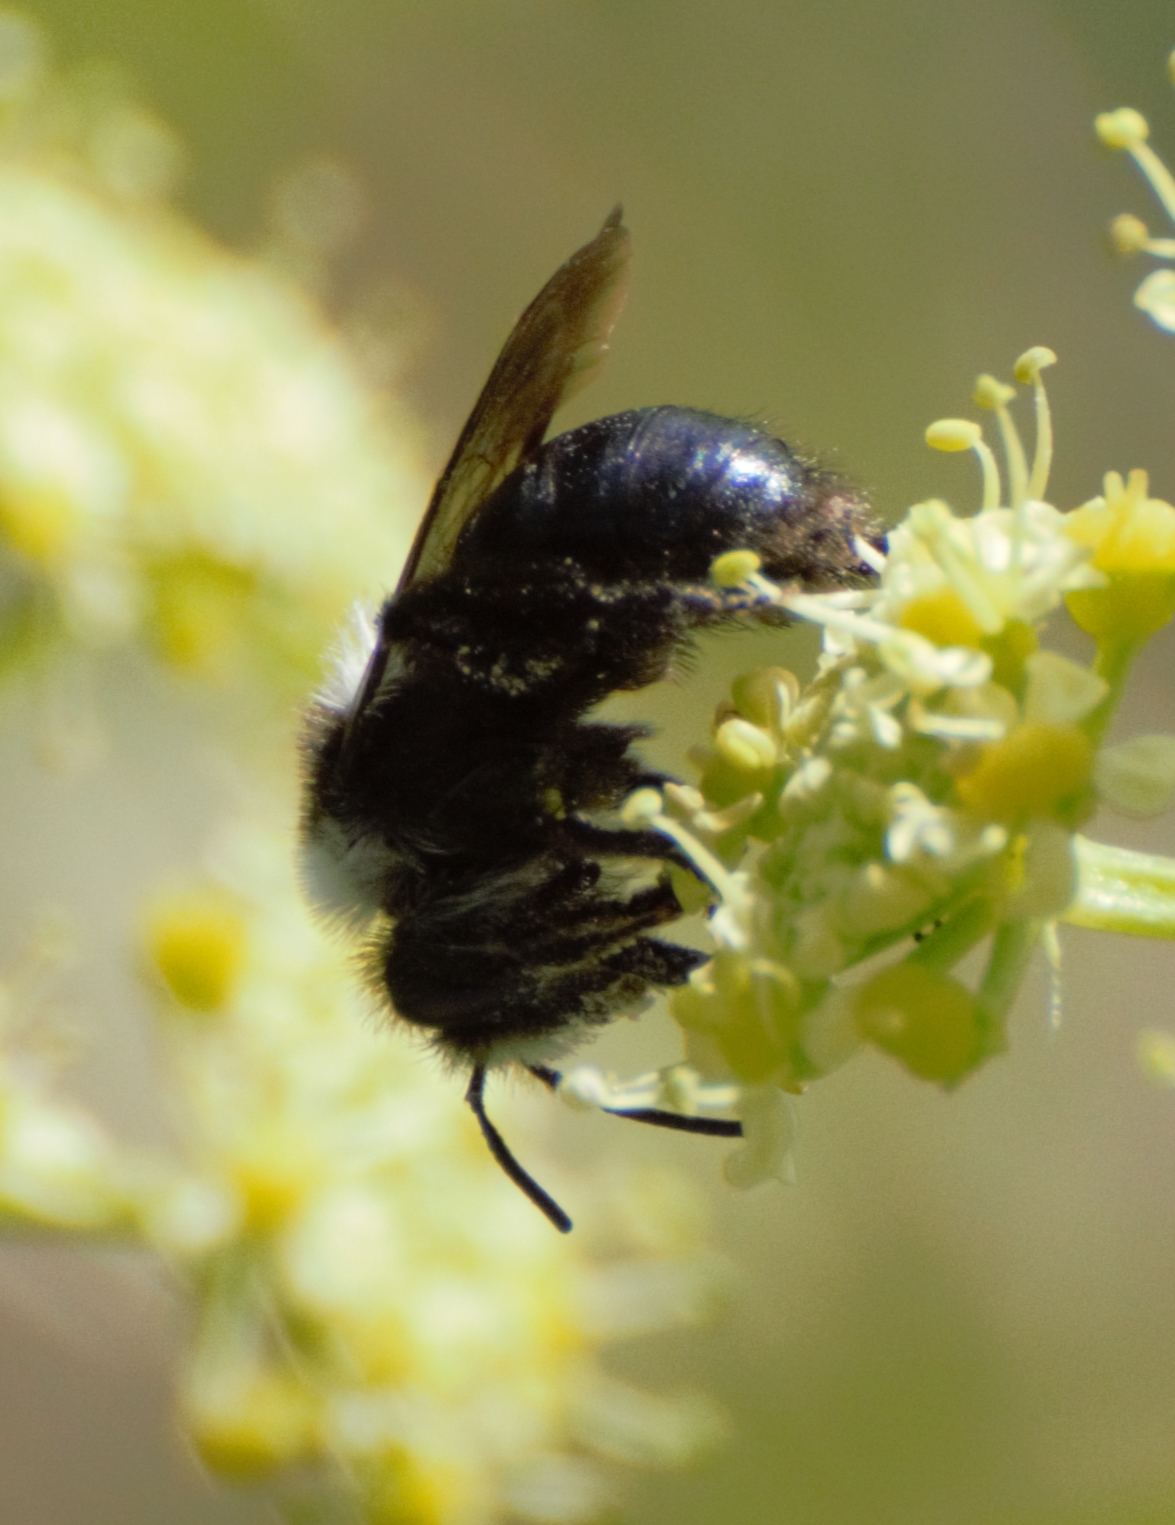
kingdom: Animalia
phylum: Arthropoda
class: Insecta
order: Hymenoptera
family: Andrenidae
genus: Andrena
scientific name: Andrena cineraria
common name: Ashy mining bee
